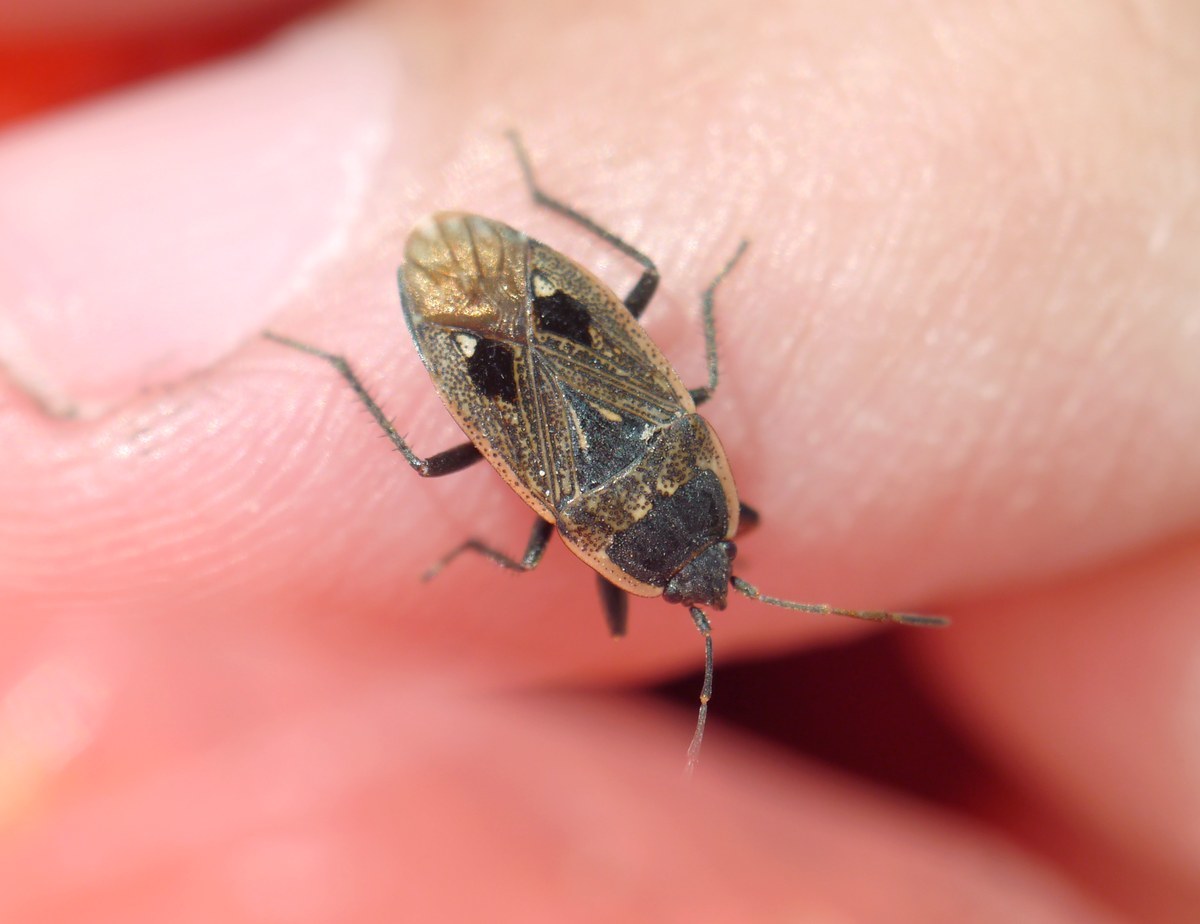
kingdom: Animalia
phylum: Arthropoda
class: Insecta
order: Hemiptera
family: Rhyparochromidae
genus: Graptopeltus
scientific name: Graptopeltus lynceus
